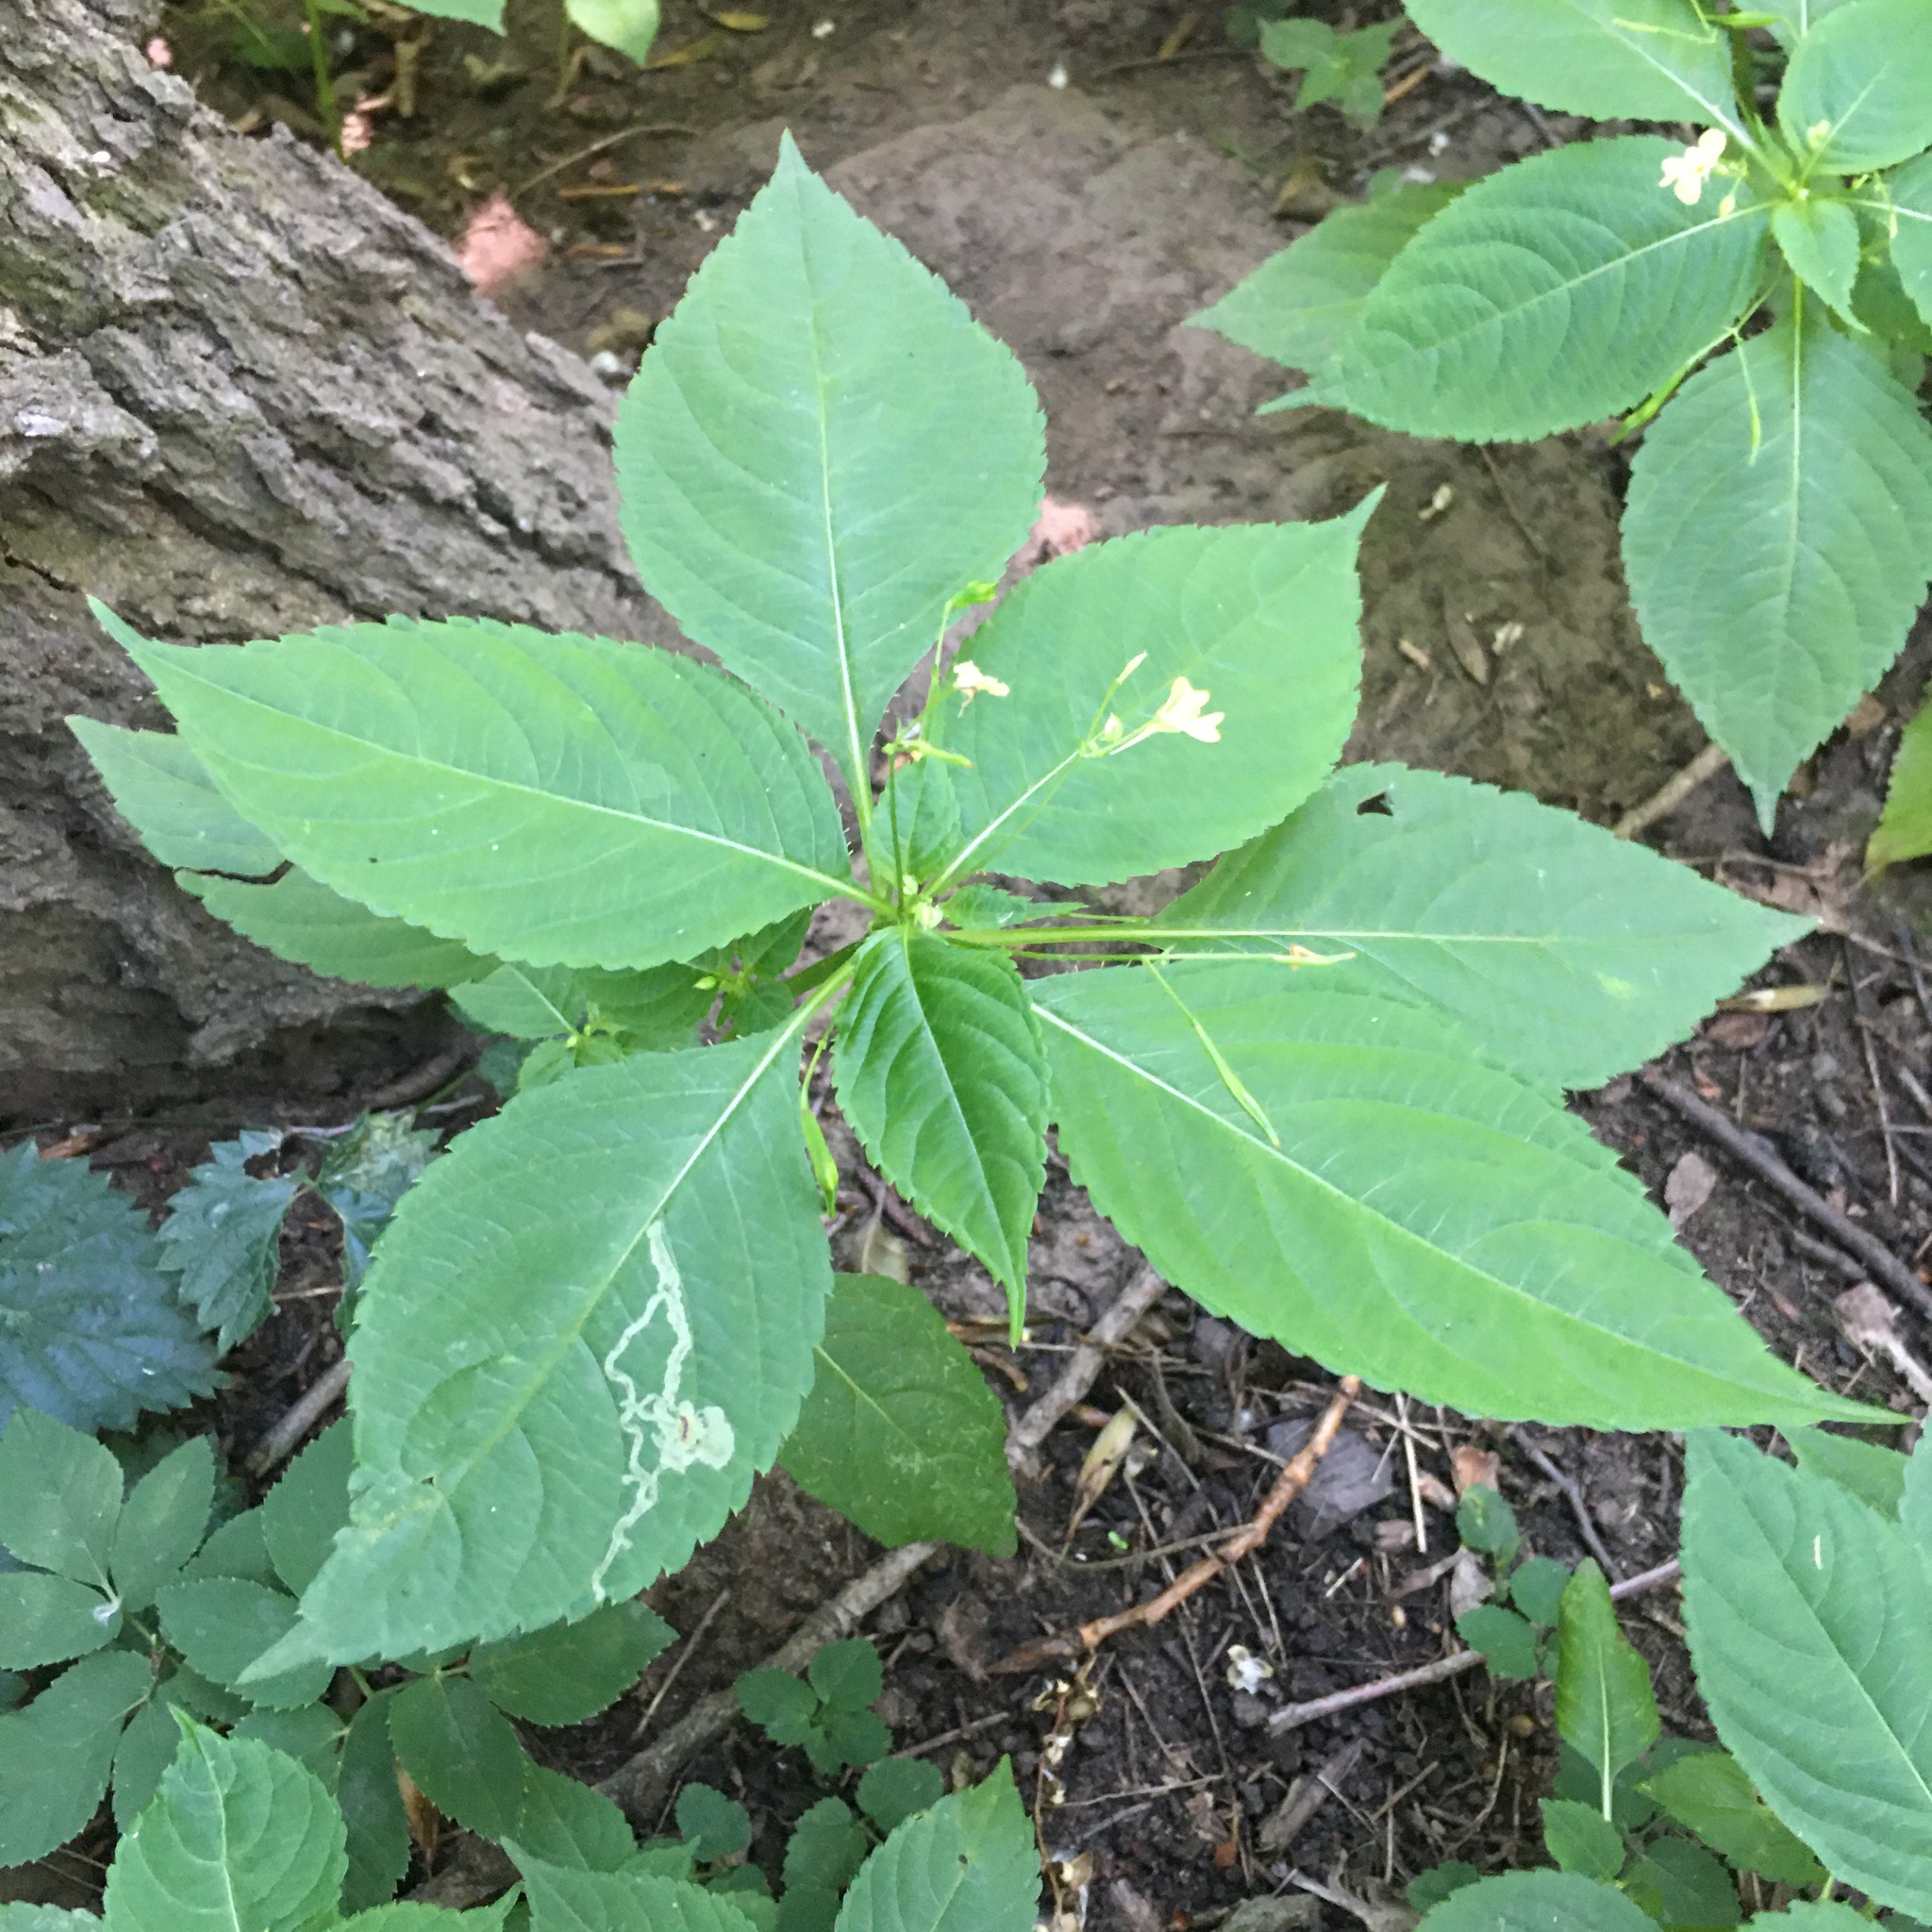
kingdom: Plantae
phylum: Tracheophyta
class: Magnoliopsida
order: Ericales
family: Balsaminaceae
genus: Impatiens
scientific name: Impatiens parviflora
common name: Small balsam
